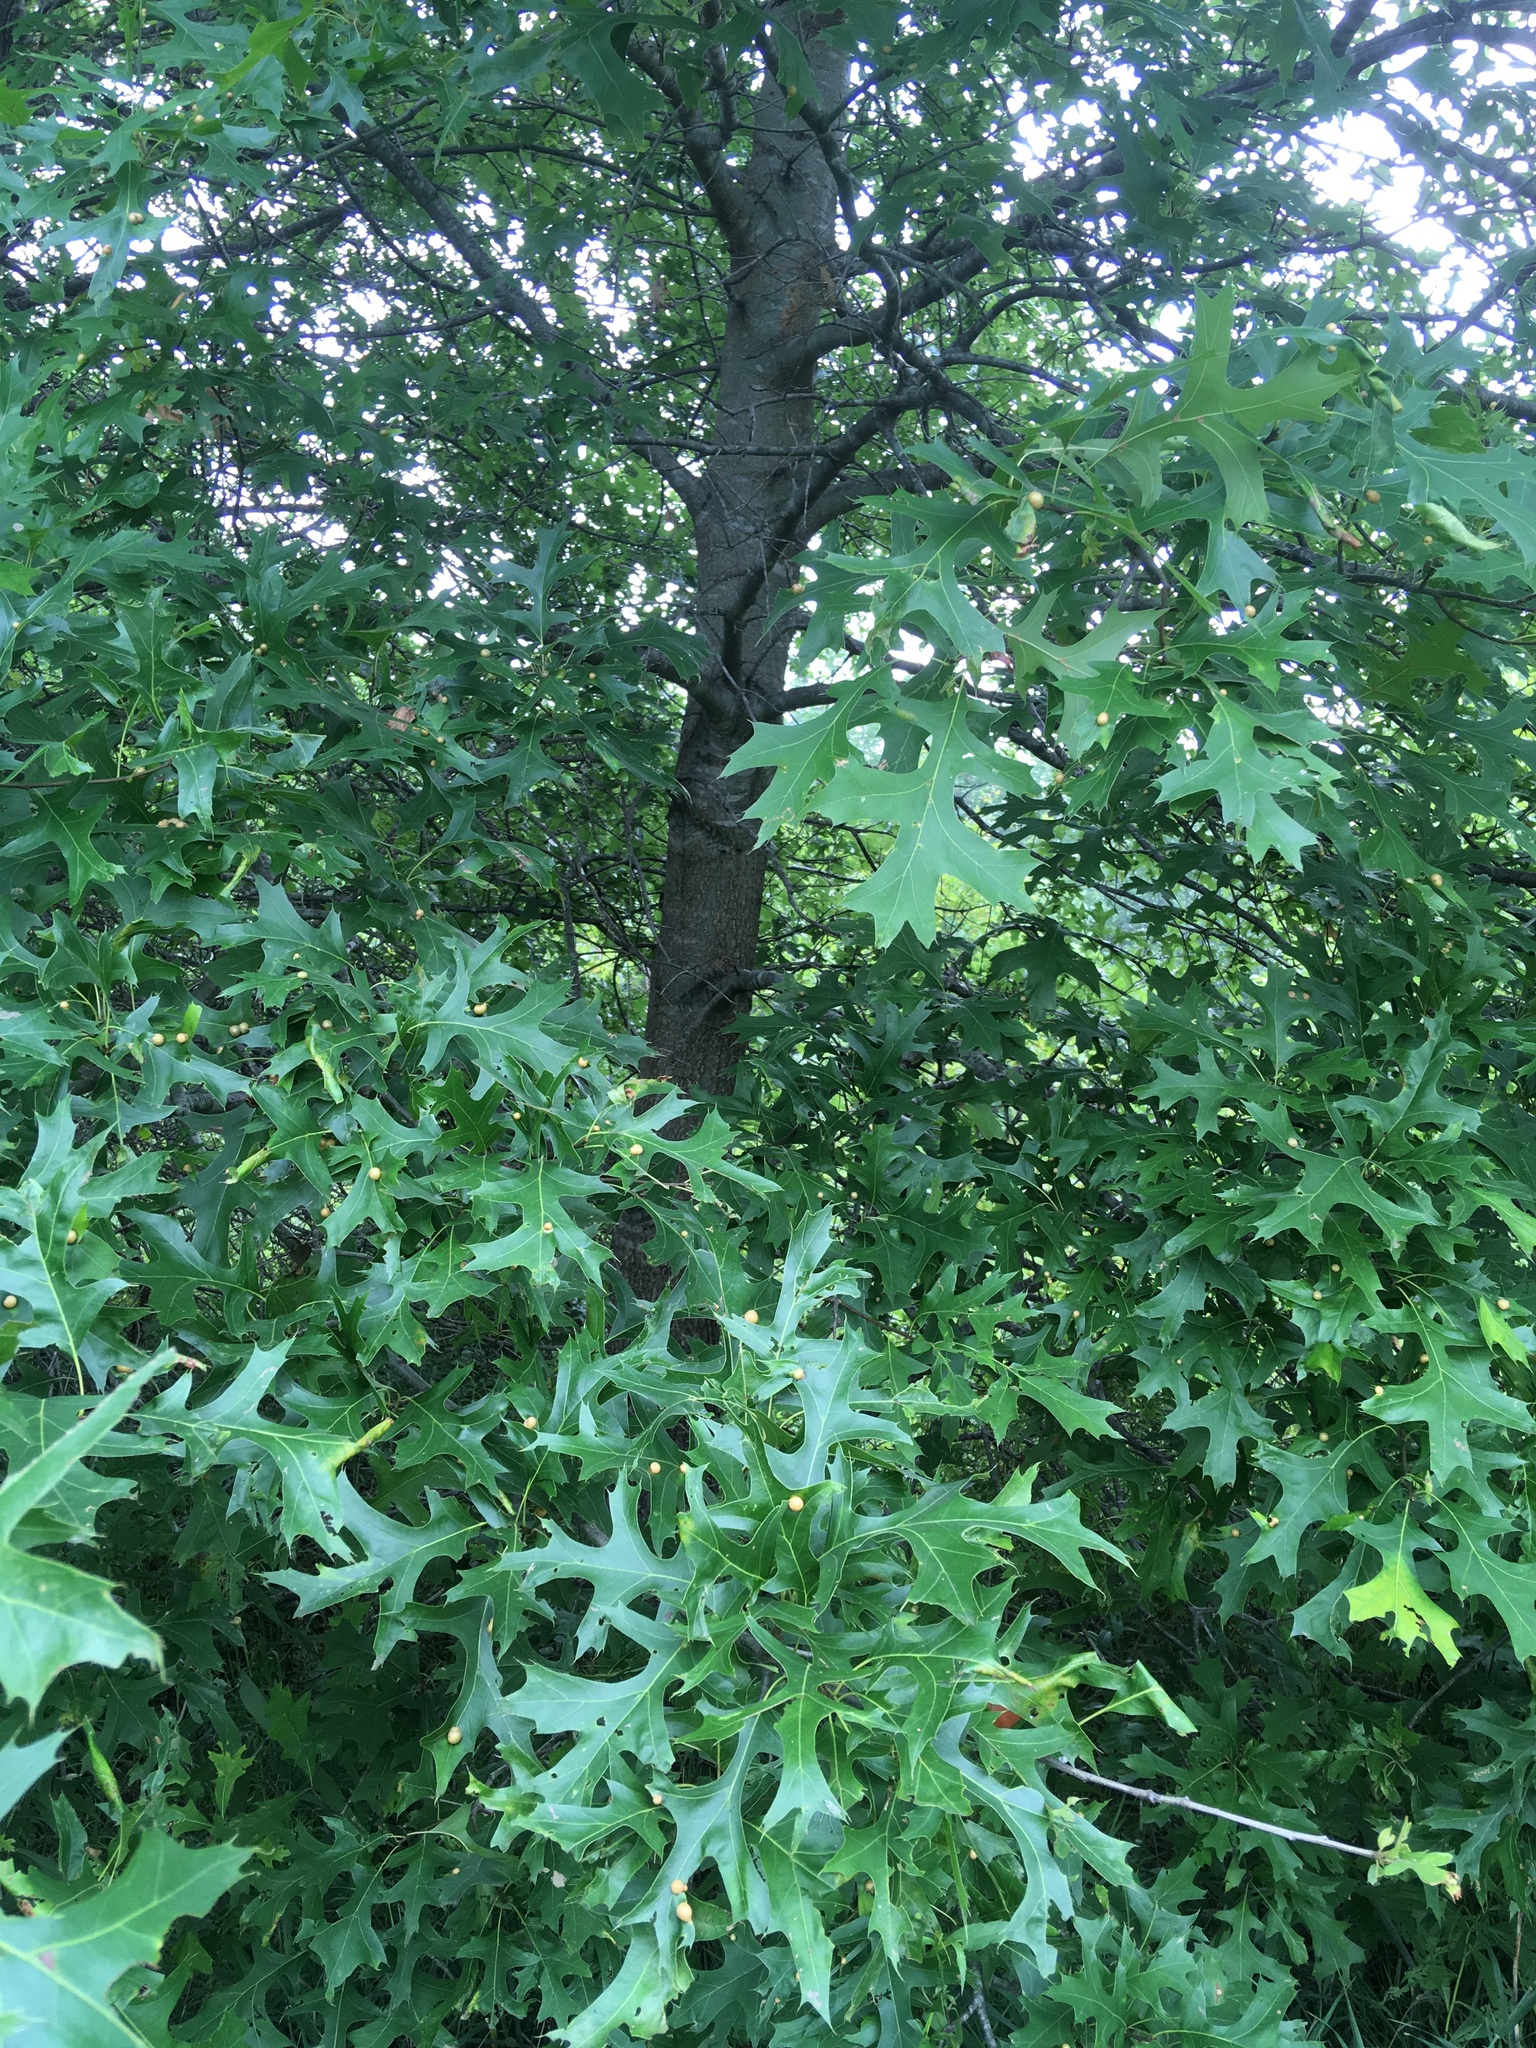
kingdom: Plantae
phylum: Tracheophyta
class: Magnoliopsida
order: Fagales
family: Fagaceae
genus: Quercus
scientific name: Quercus palustris
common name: Pin oak
